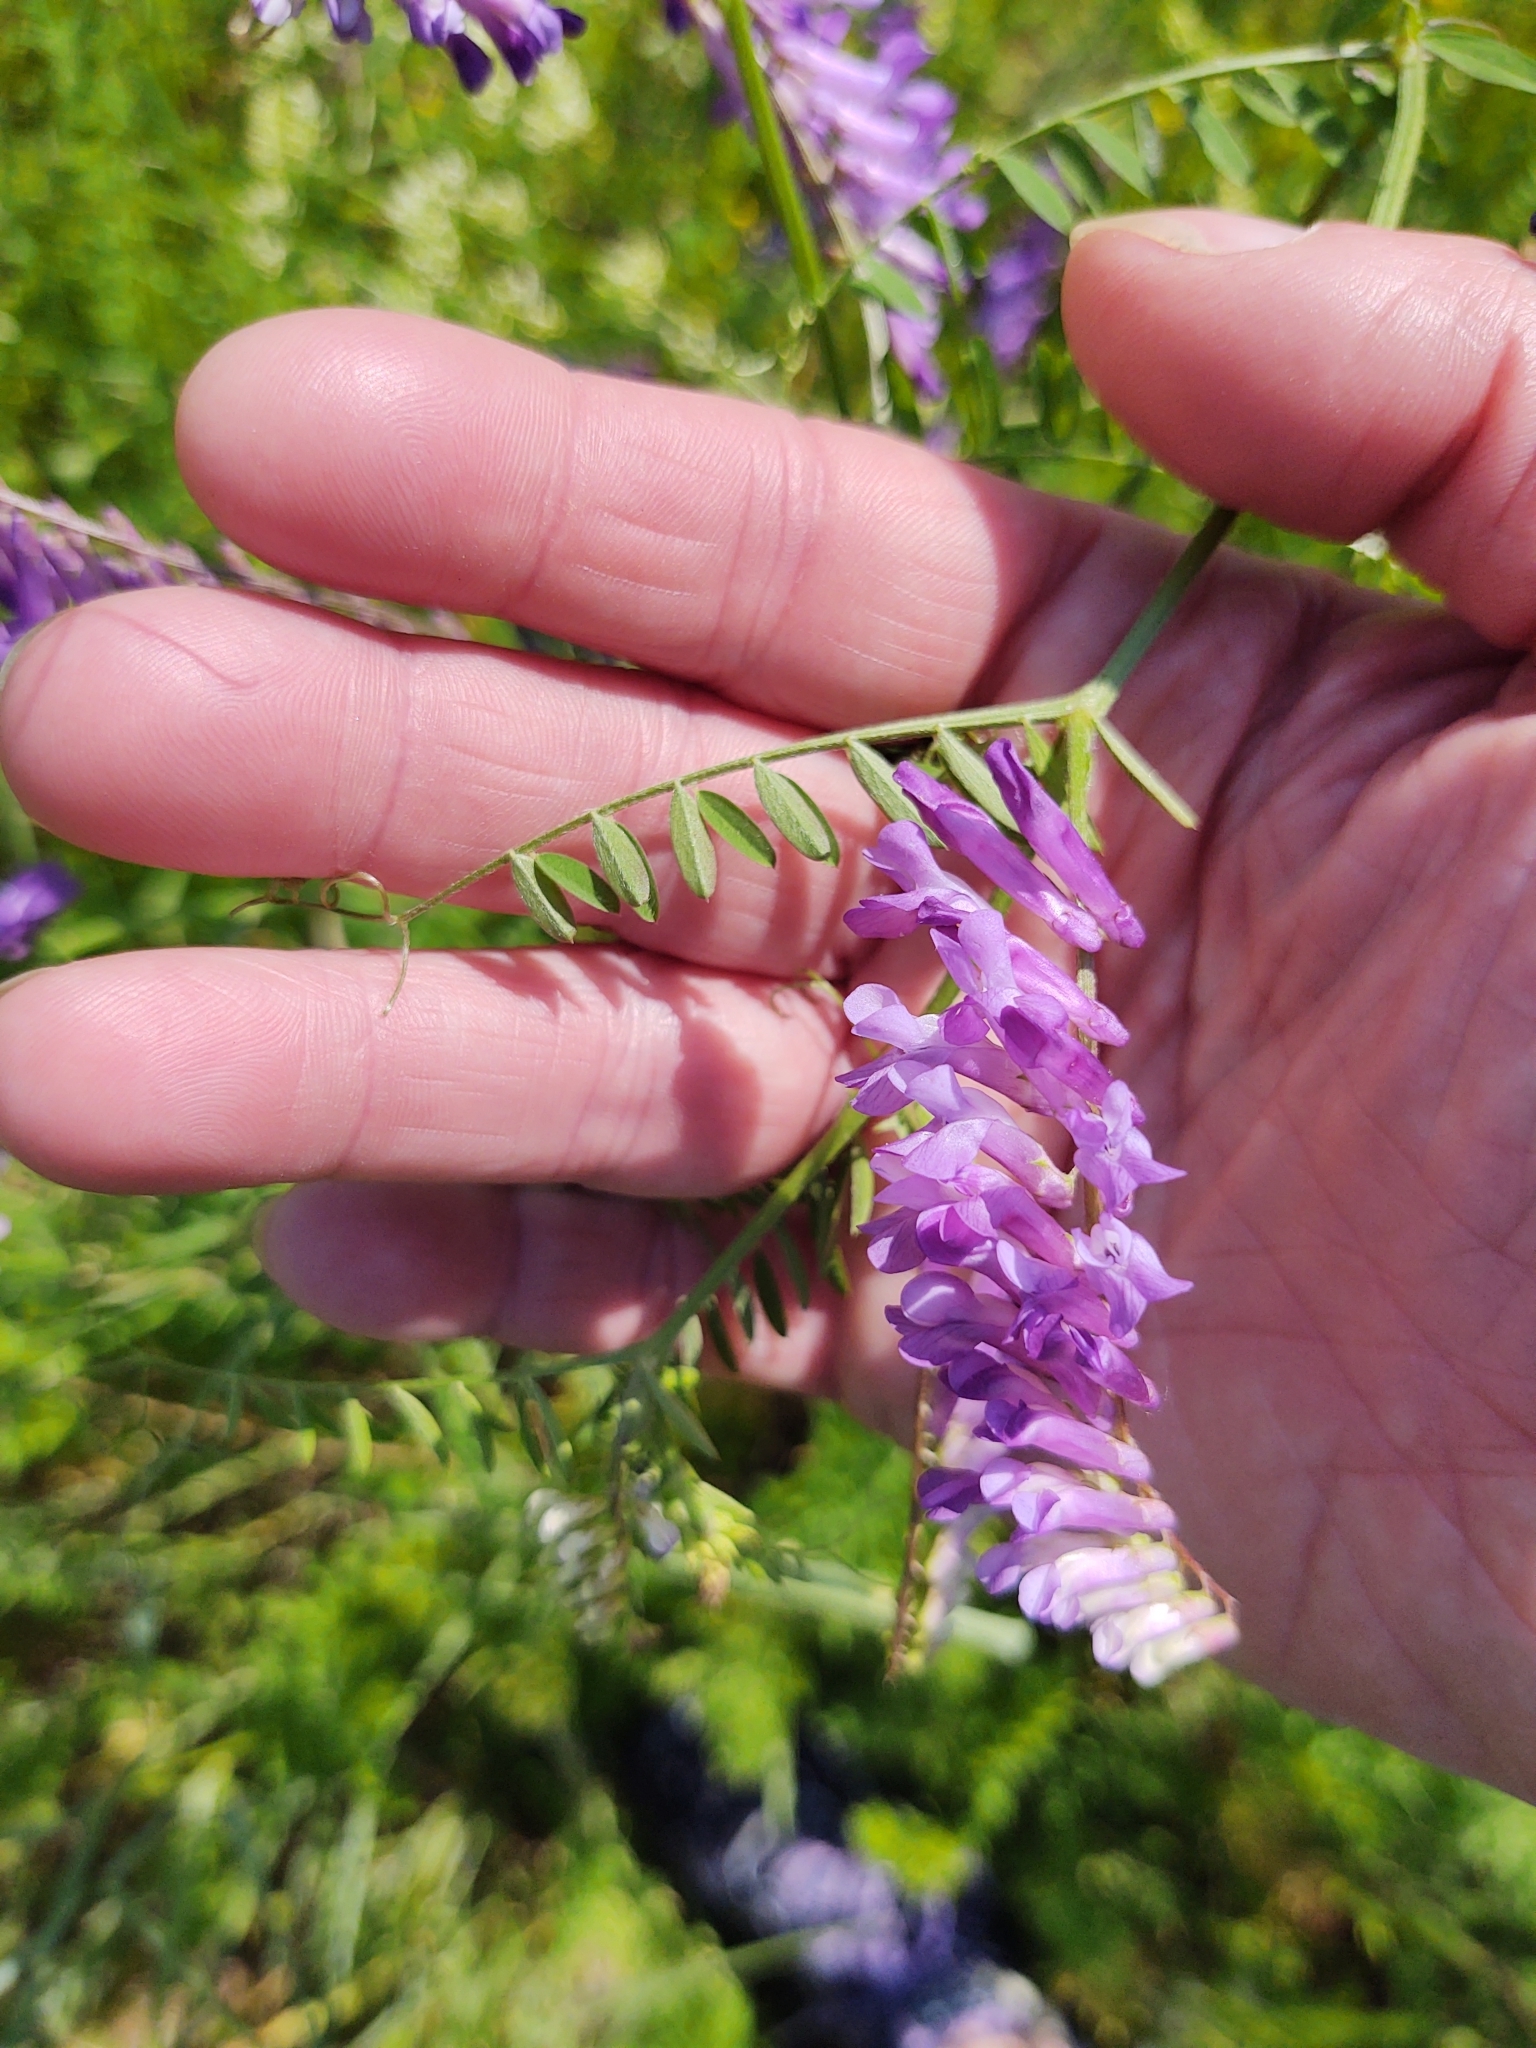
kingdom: Plantae
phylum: Tracheophyta
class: Magnoliopsida
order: Fabales
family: Fabaceae
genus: Vicia
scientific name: Vicia villosa
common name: Fodder vetch
